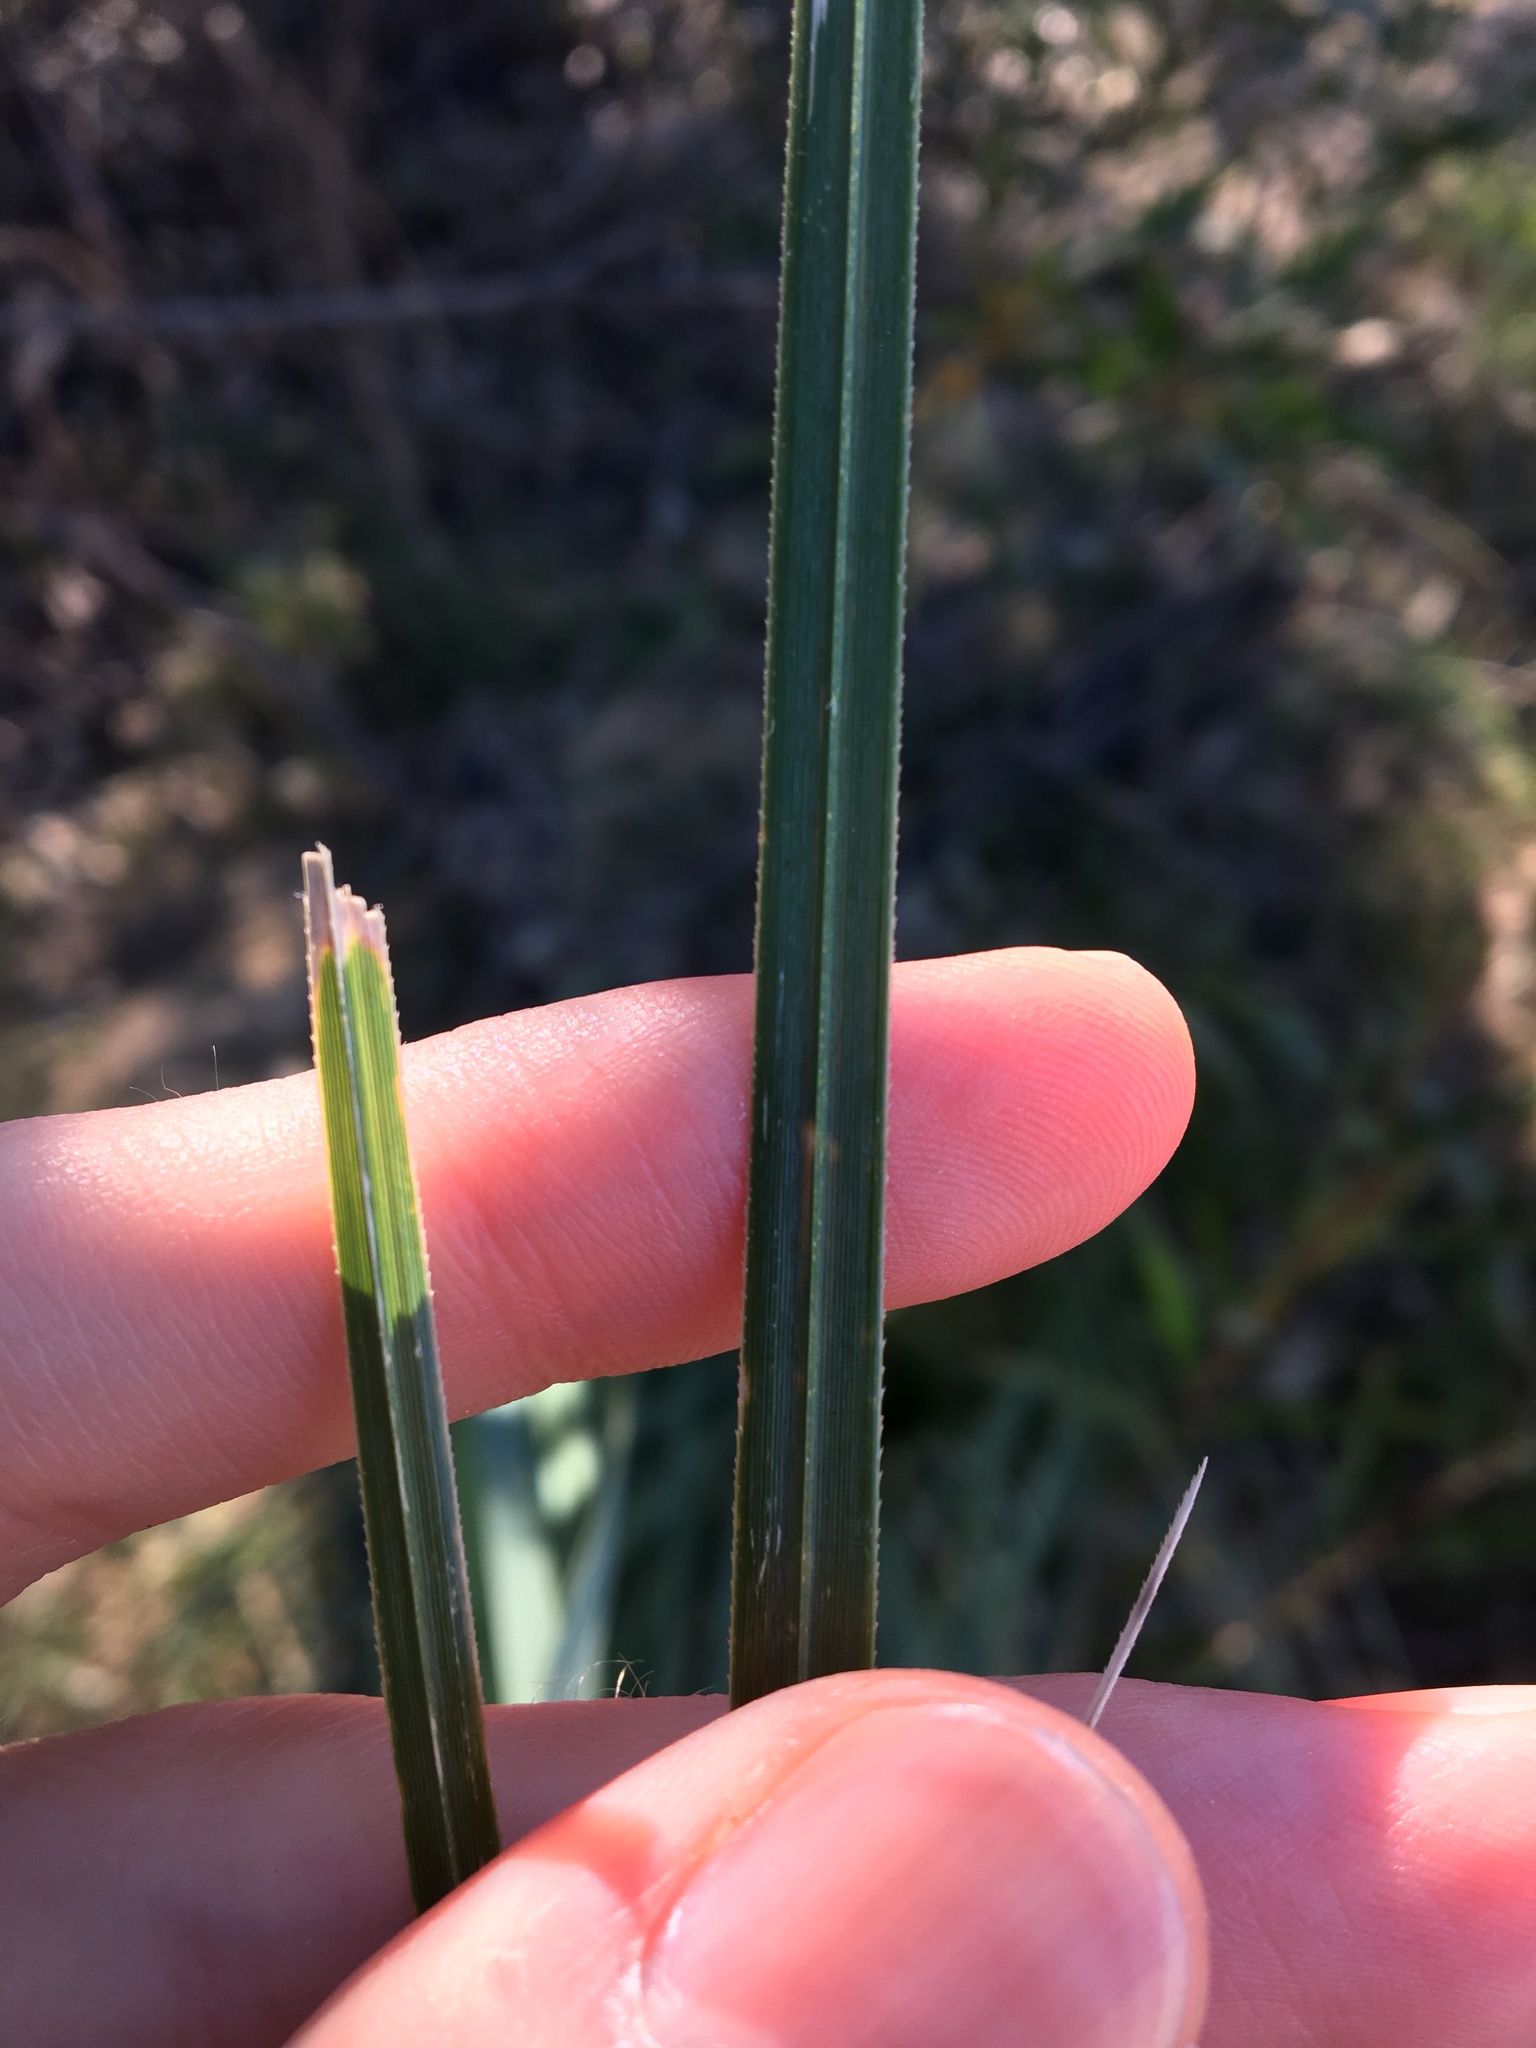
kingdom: Plantae
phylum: Tracheophyta
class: Liliopsida
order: Poales
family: Poaceae
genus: Cortaderia
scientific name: Cortaderia selloana
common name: Uruguayan pampas grass
